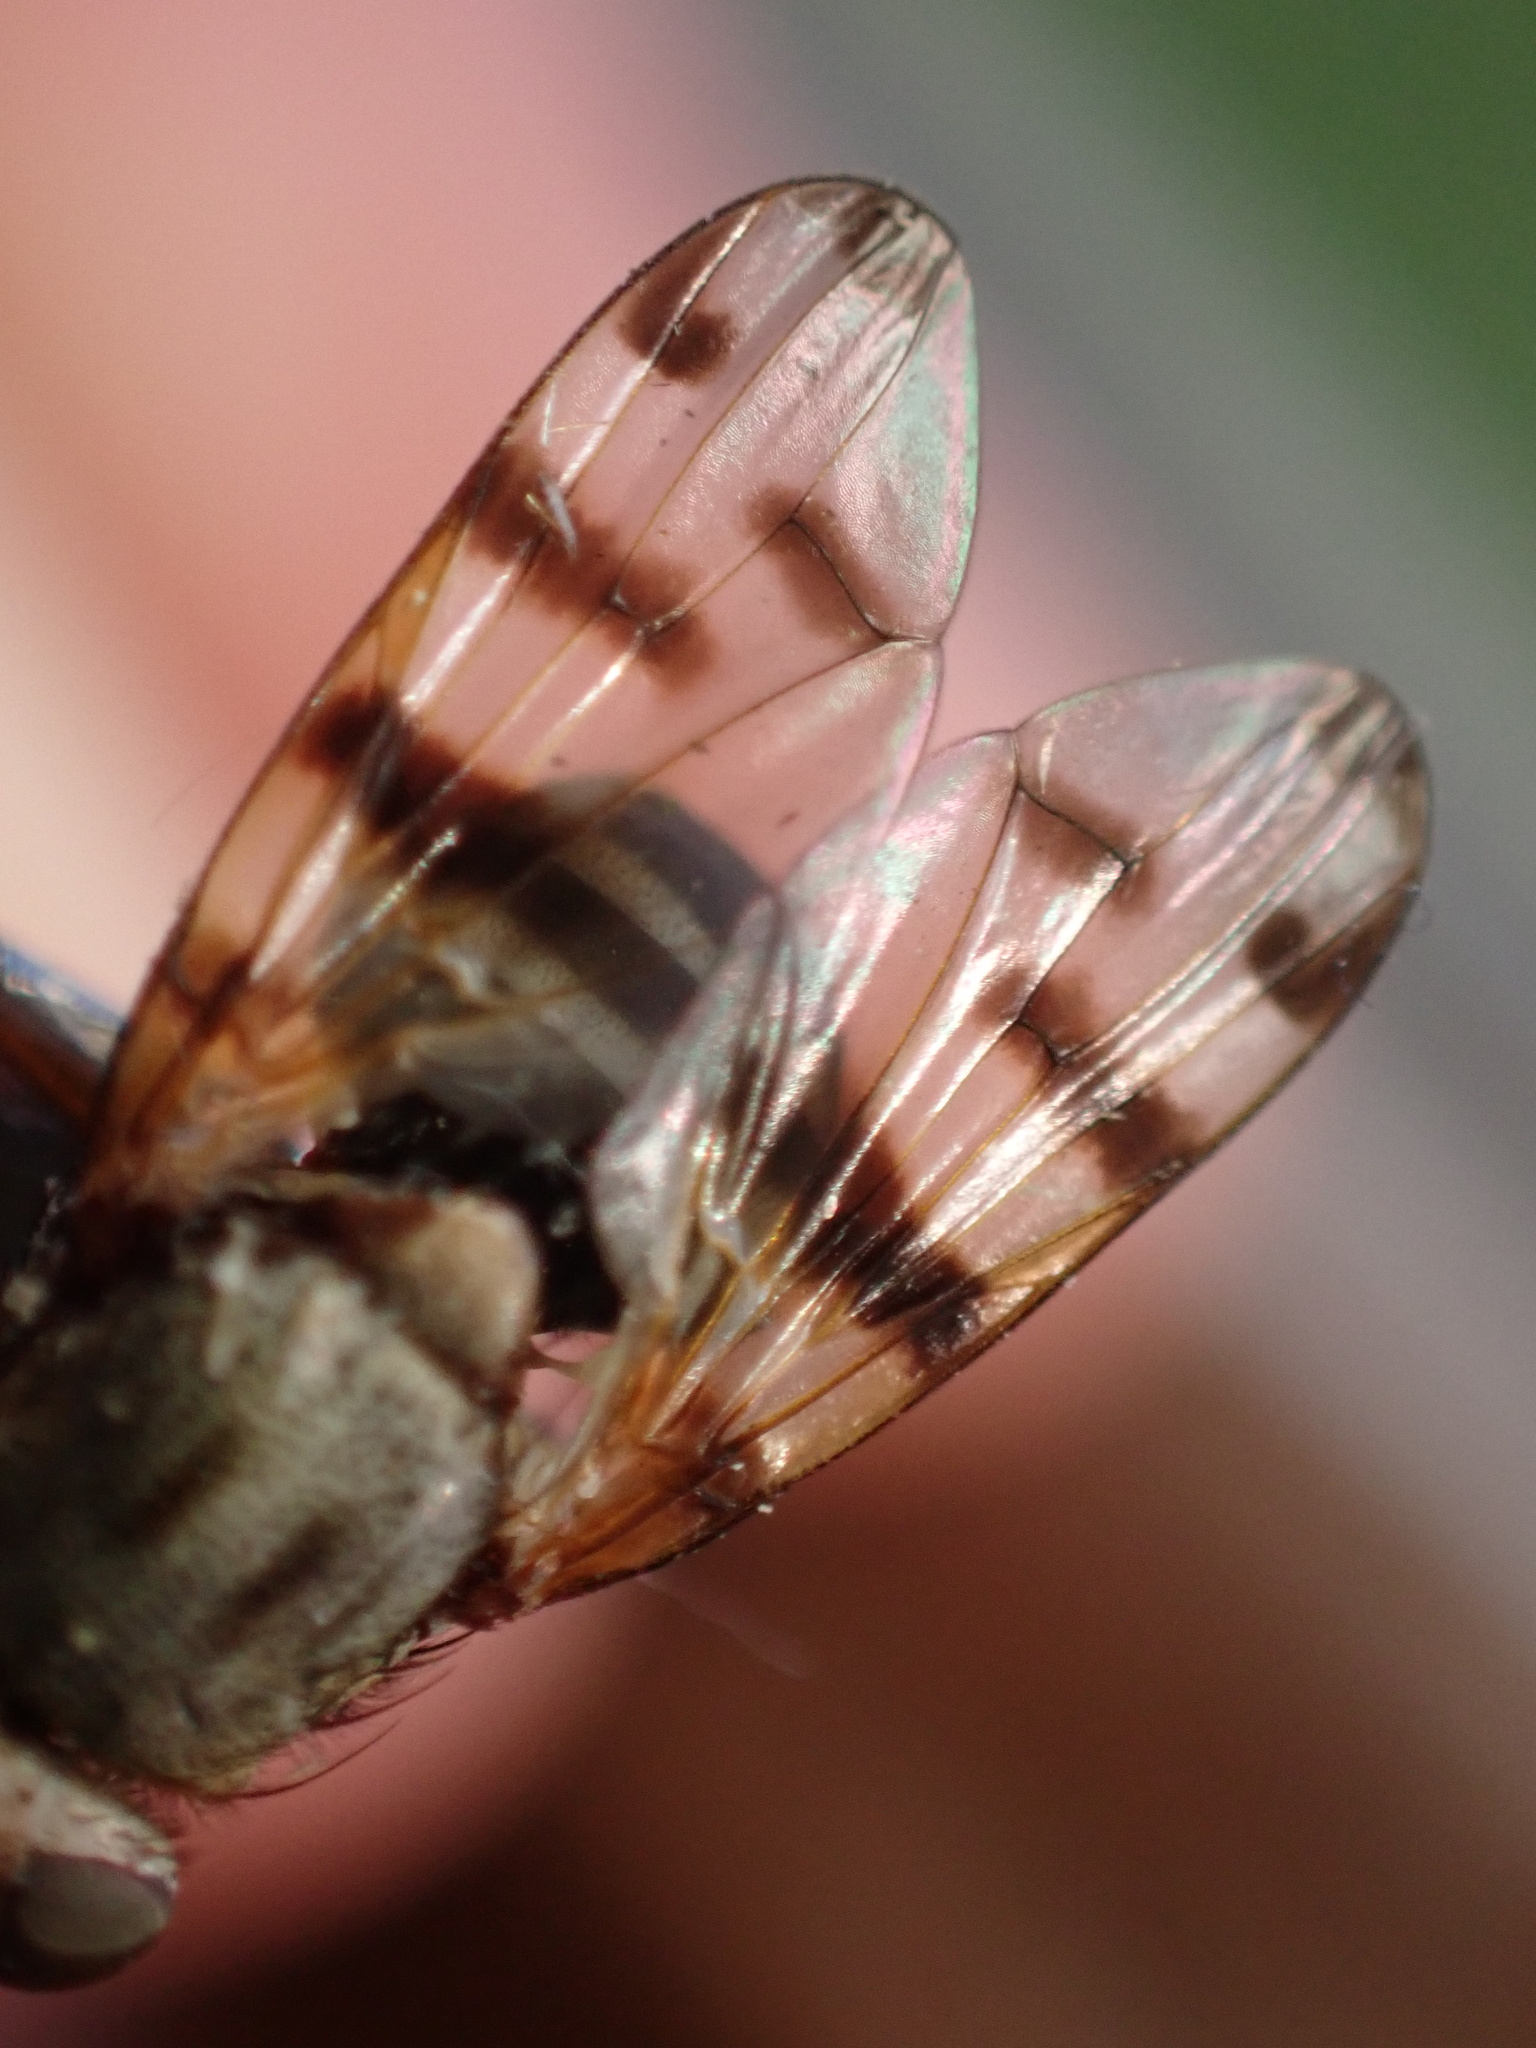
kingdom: Animalia
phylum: Arthropoda
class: Insecta
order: Diptera
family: Ulidiidae
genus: Ceroxys
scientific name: Ceroxys latiusculus
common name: Picture-winged fly
